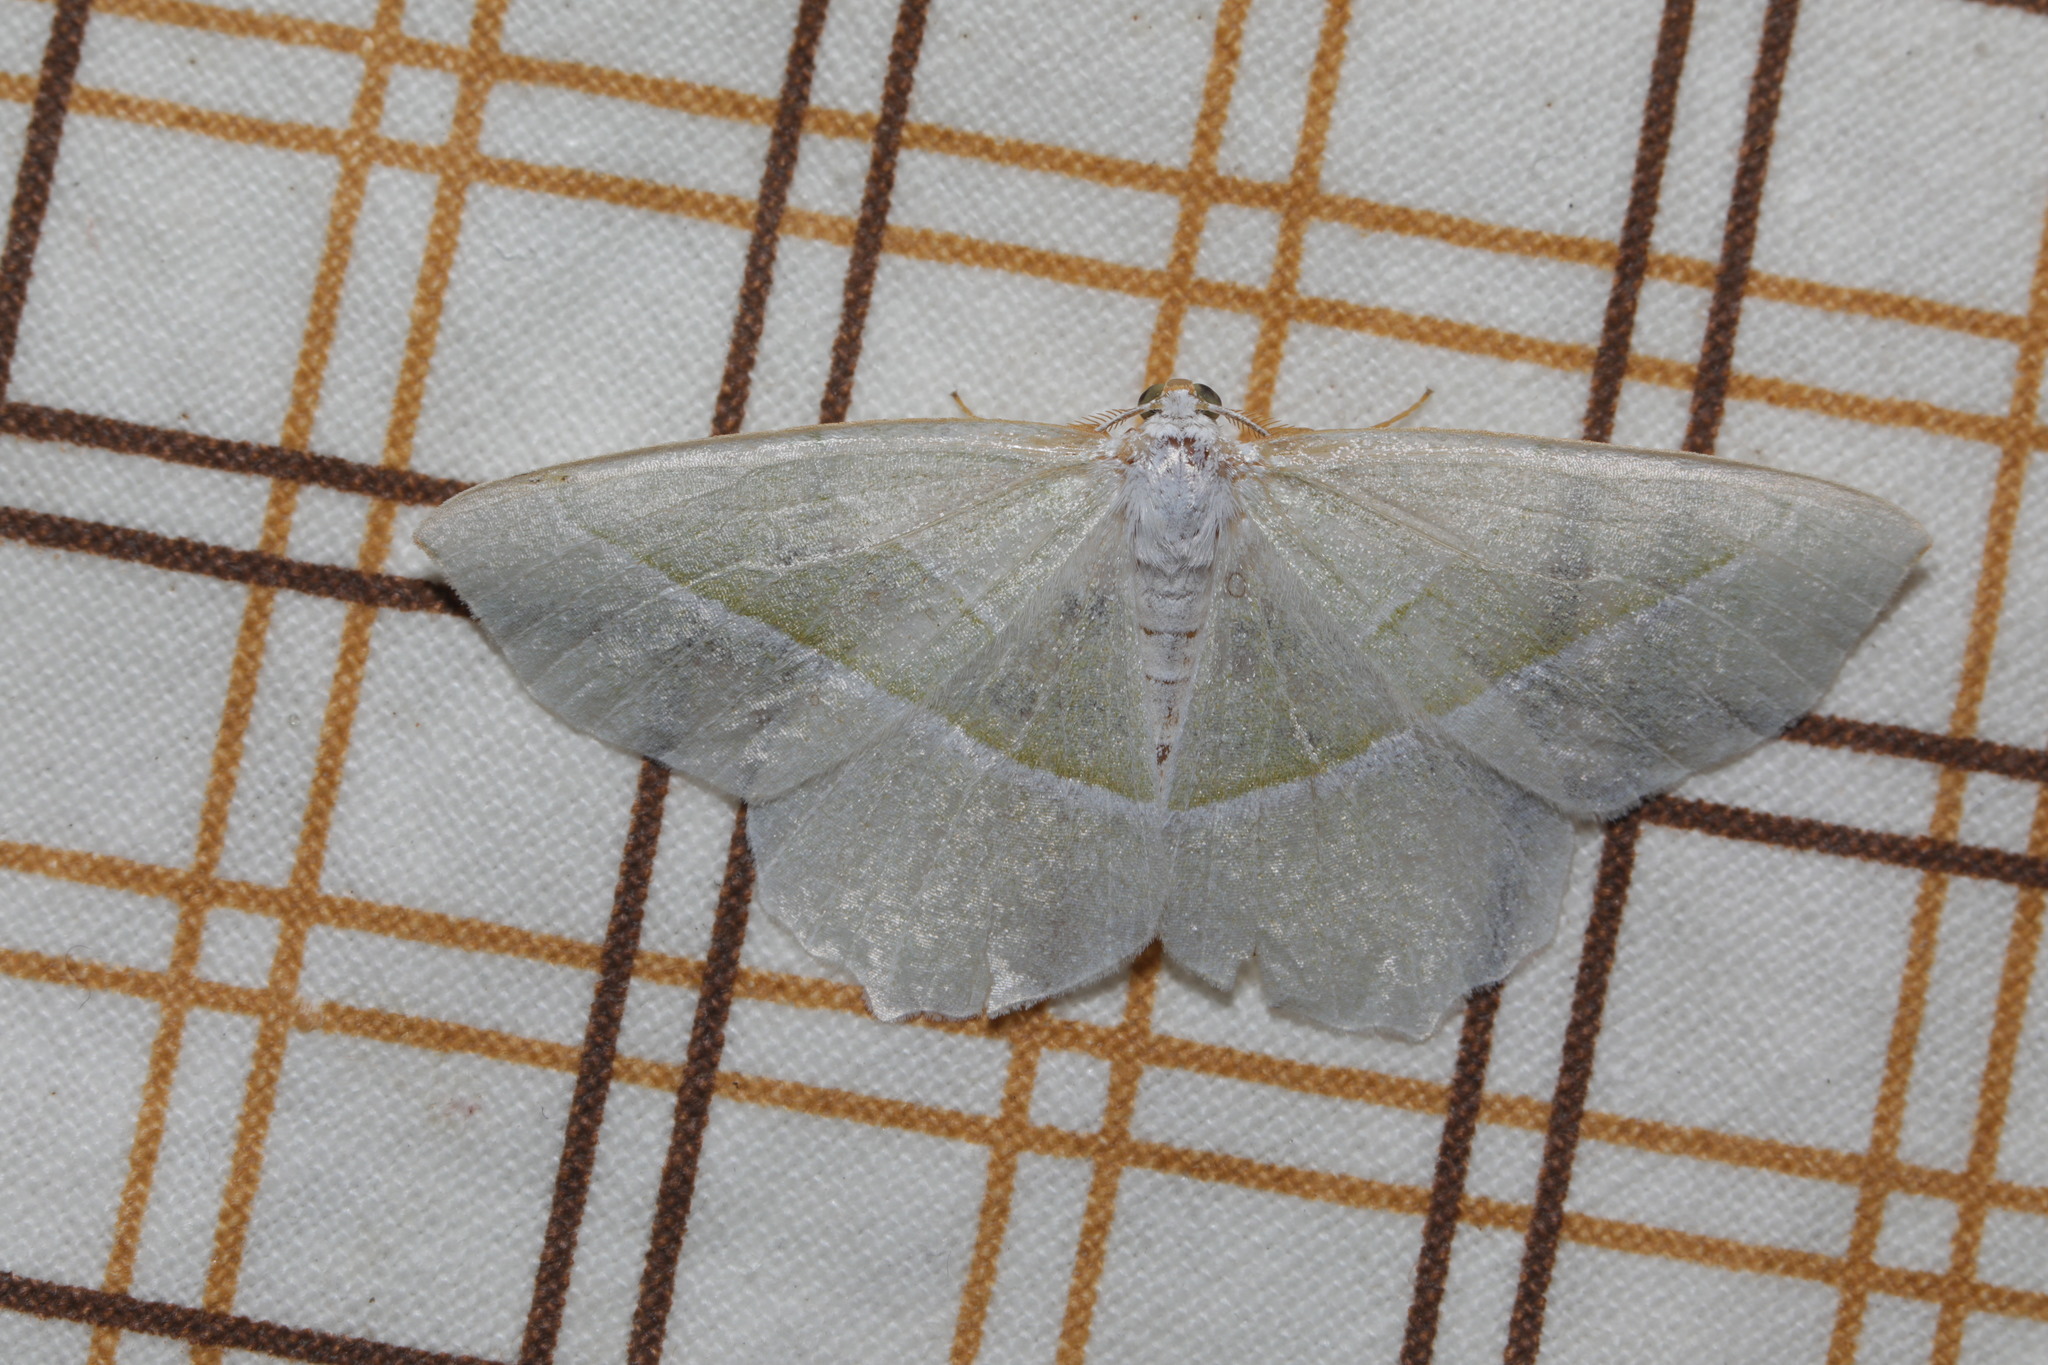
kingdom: Animalia
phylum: Arthropoda
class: Insecta
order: Lepidoptera
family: Geometridae
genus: Campaea
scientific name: Campaea margaritaria
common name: Light emerald
